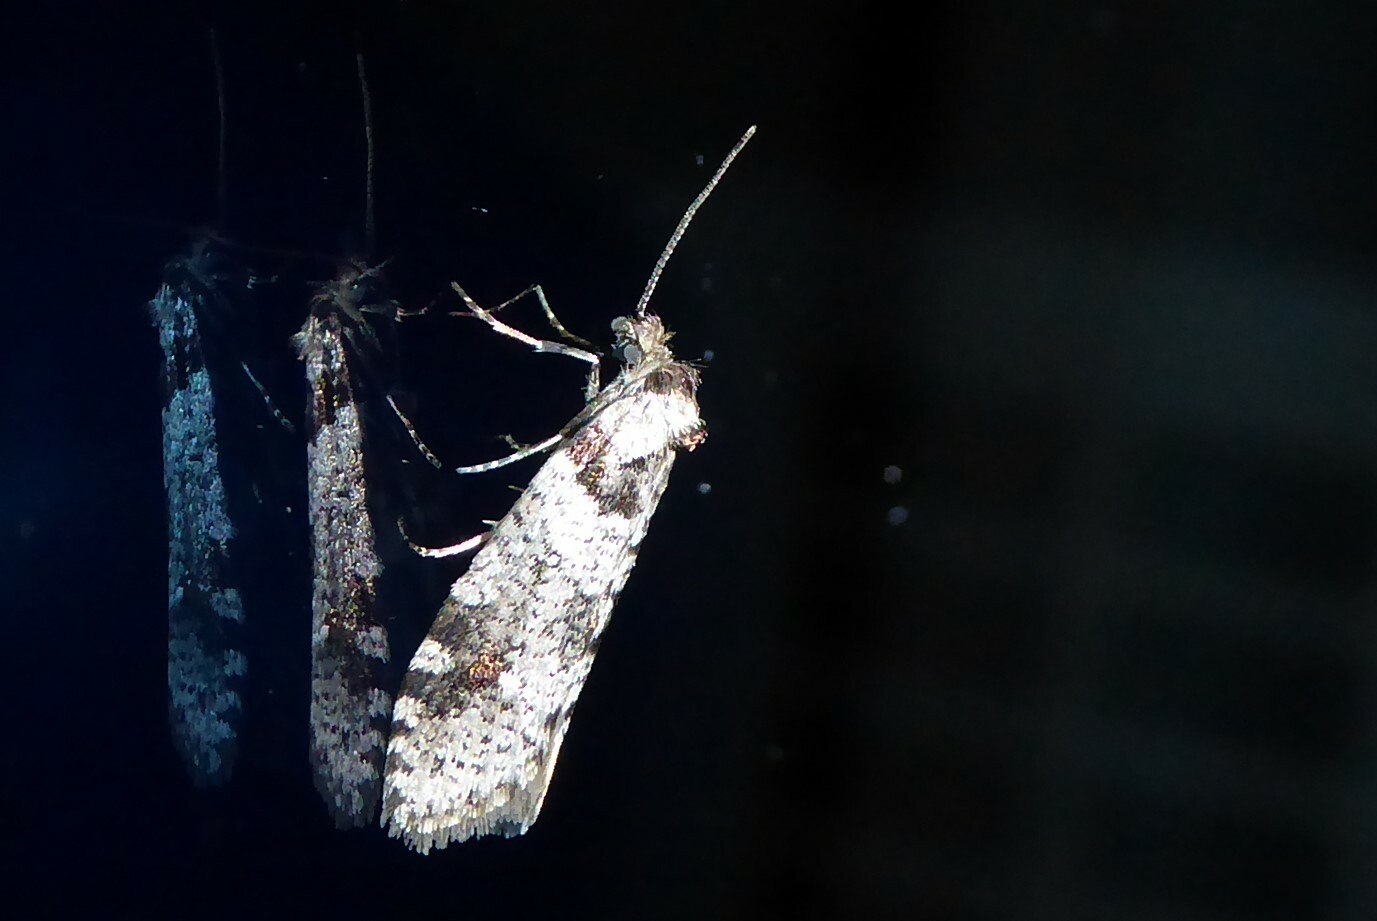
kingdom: Animalia
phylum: Arthropoda
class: Insecta
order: Lepidoptera
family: Psychidae
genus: Lepidoscia
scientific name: Lepidoscia heliochares
